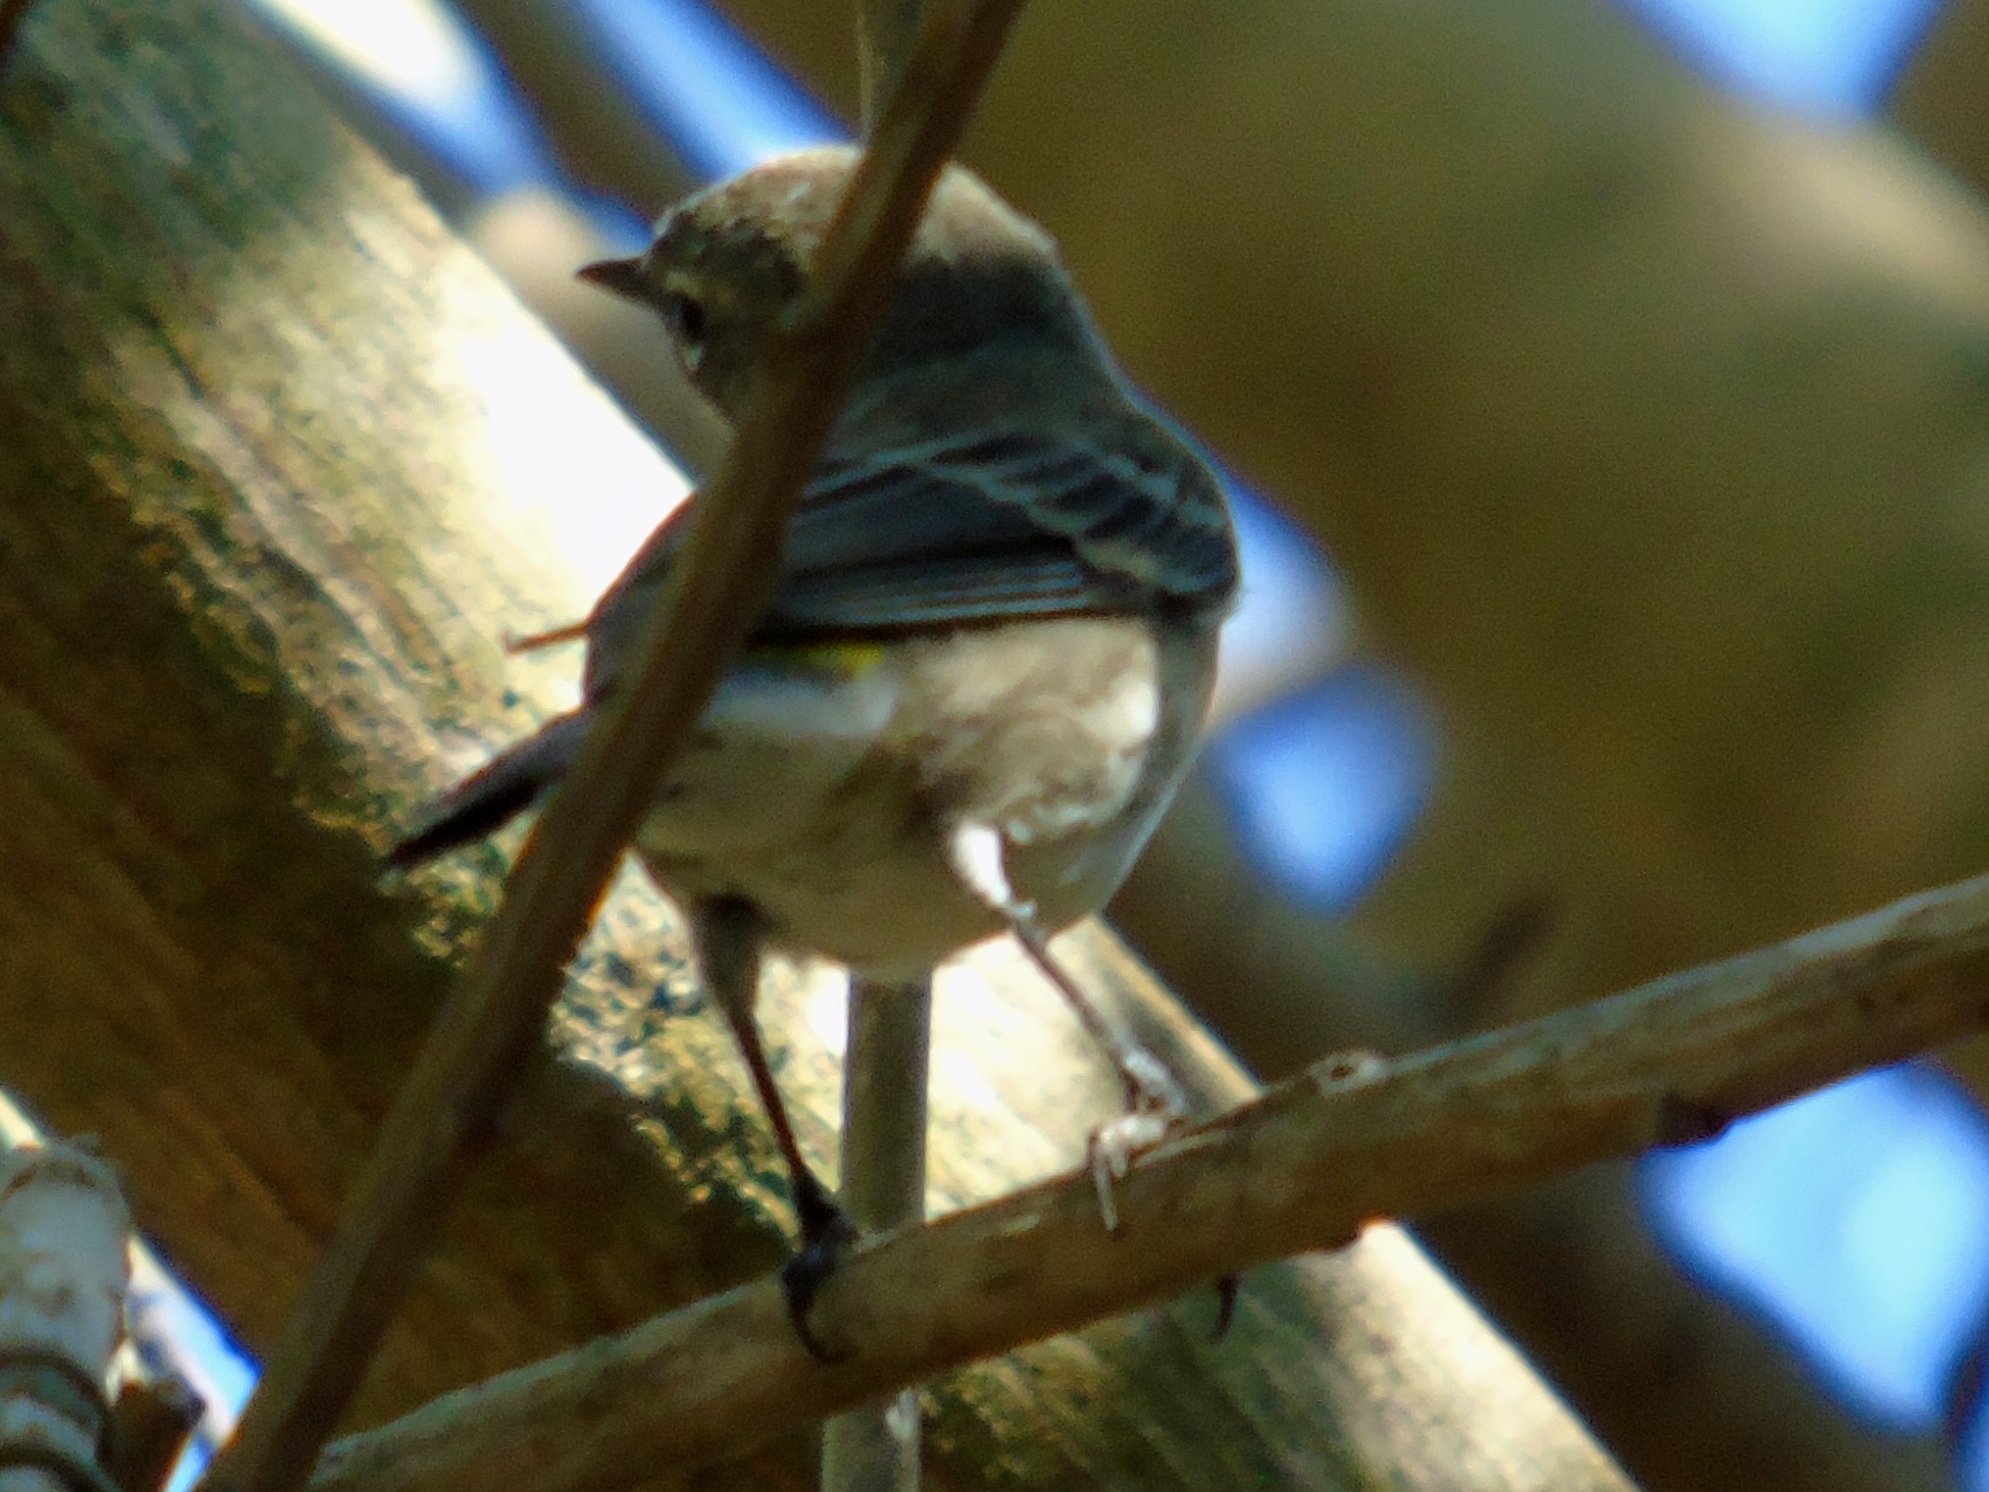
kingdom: Animalia
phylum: Chordata
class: Aves
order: Passeriformes
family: Parulidae
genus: Setophaga
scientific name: Setophaga coronata
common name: Myrtle warbler
